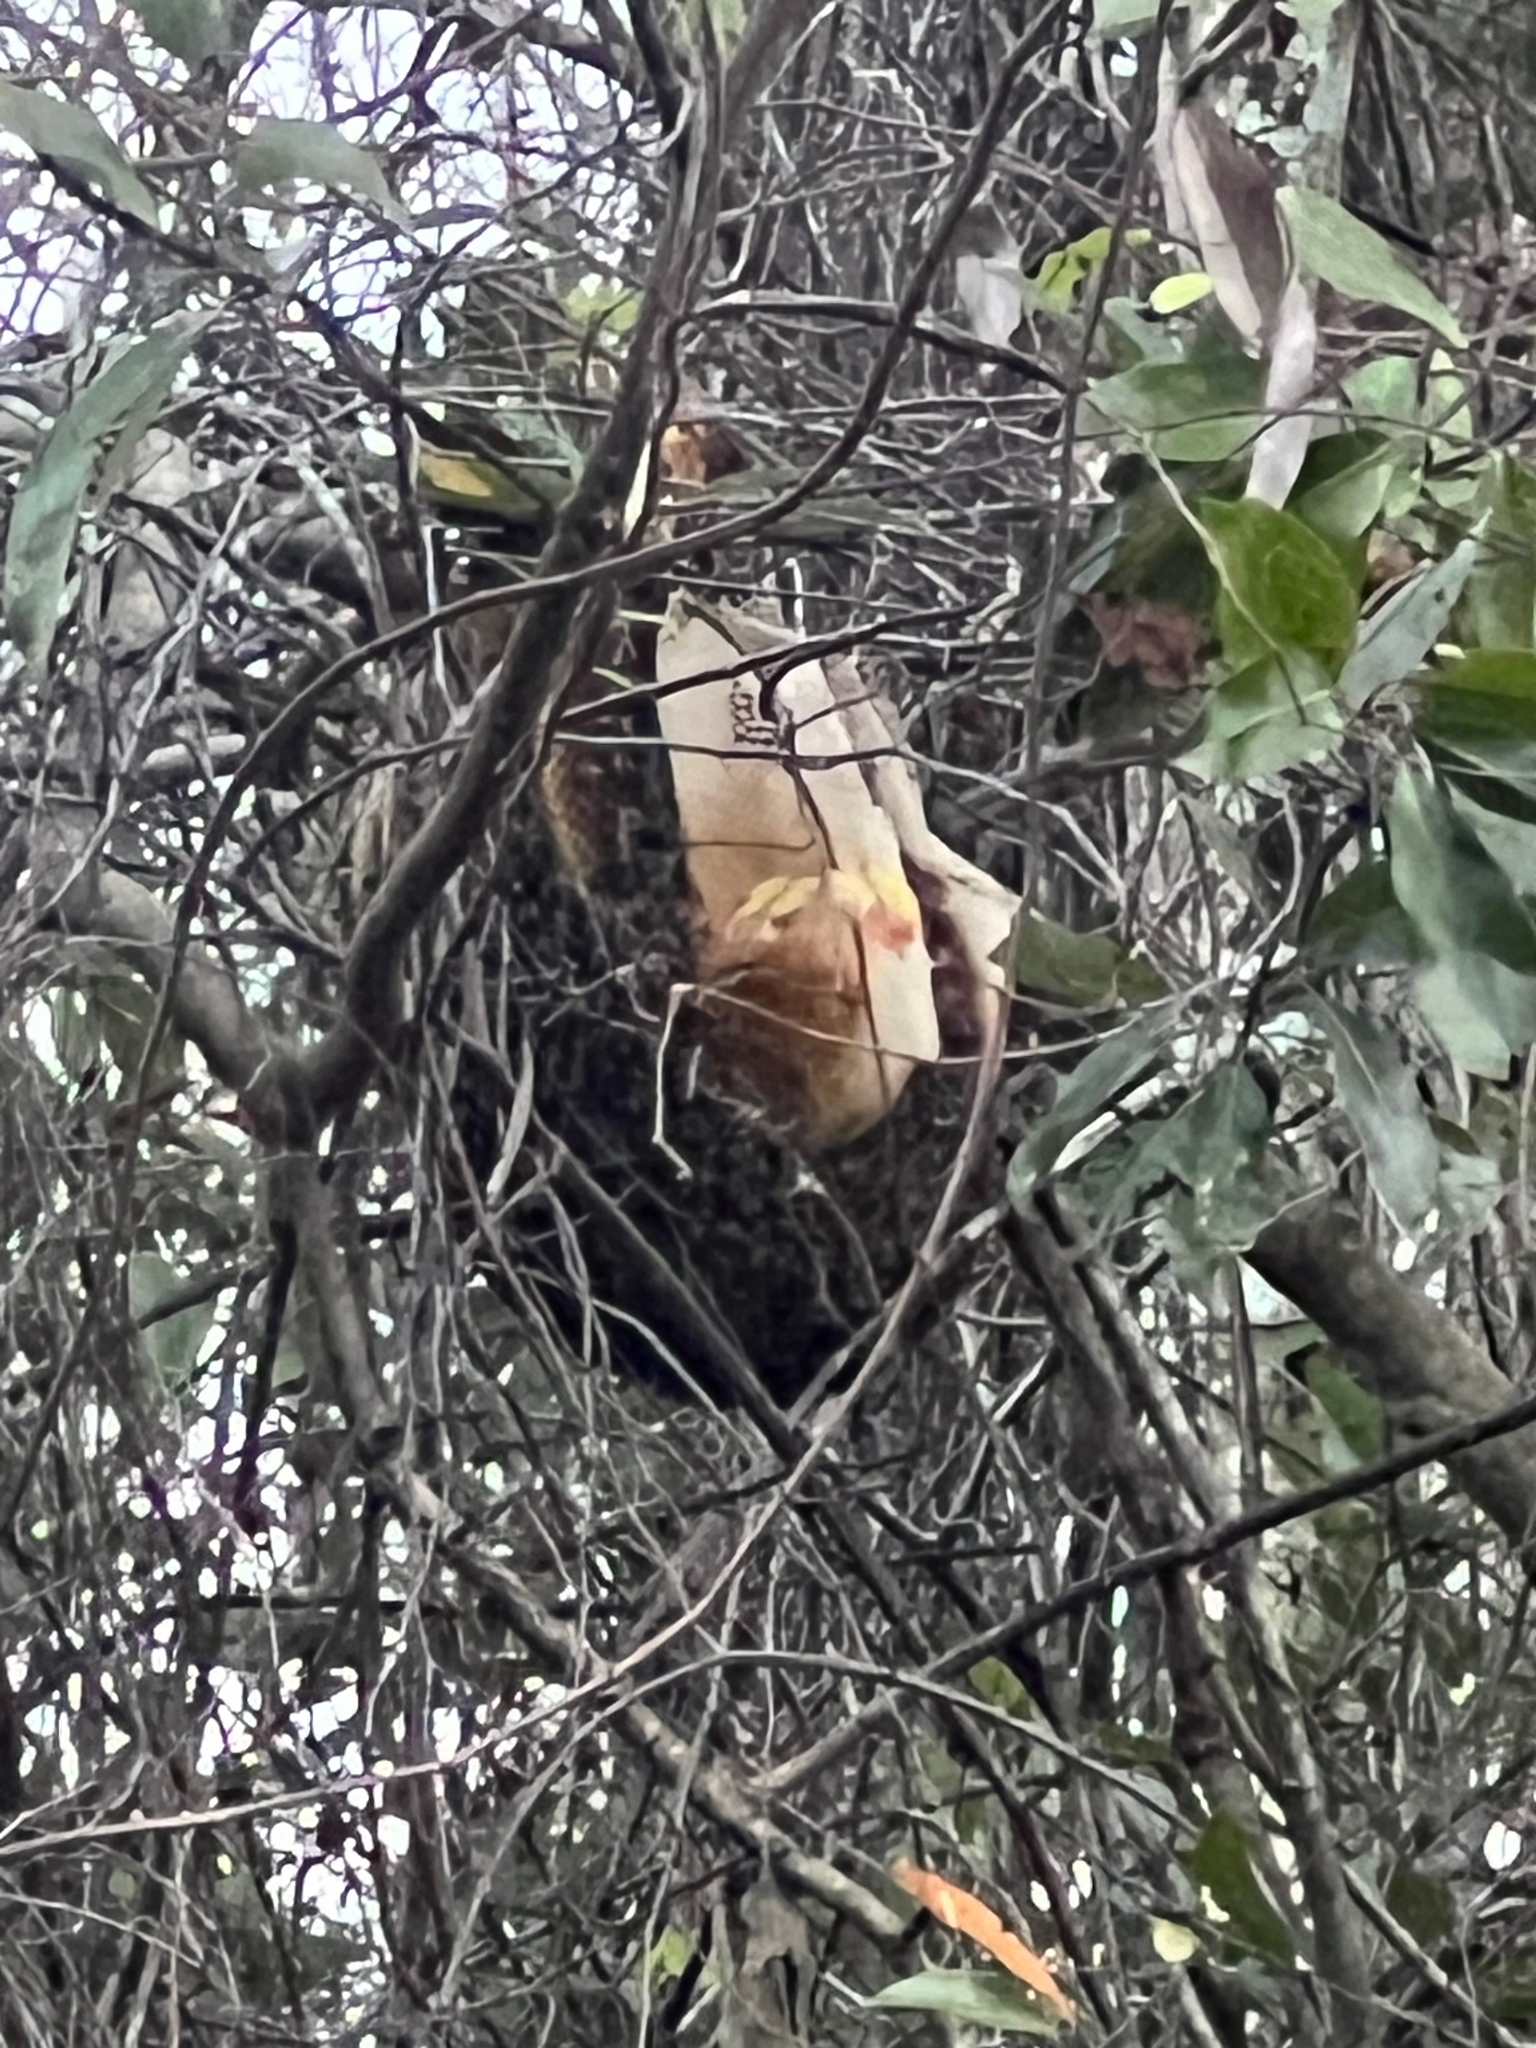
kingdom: Animalia
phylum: Arthropoda
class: Insecta
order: Hymenoptera
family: Apidae
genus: Apis
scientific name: Apis mellifera
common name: Honey bee
